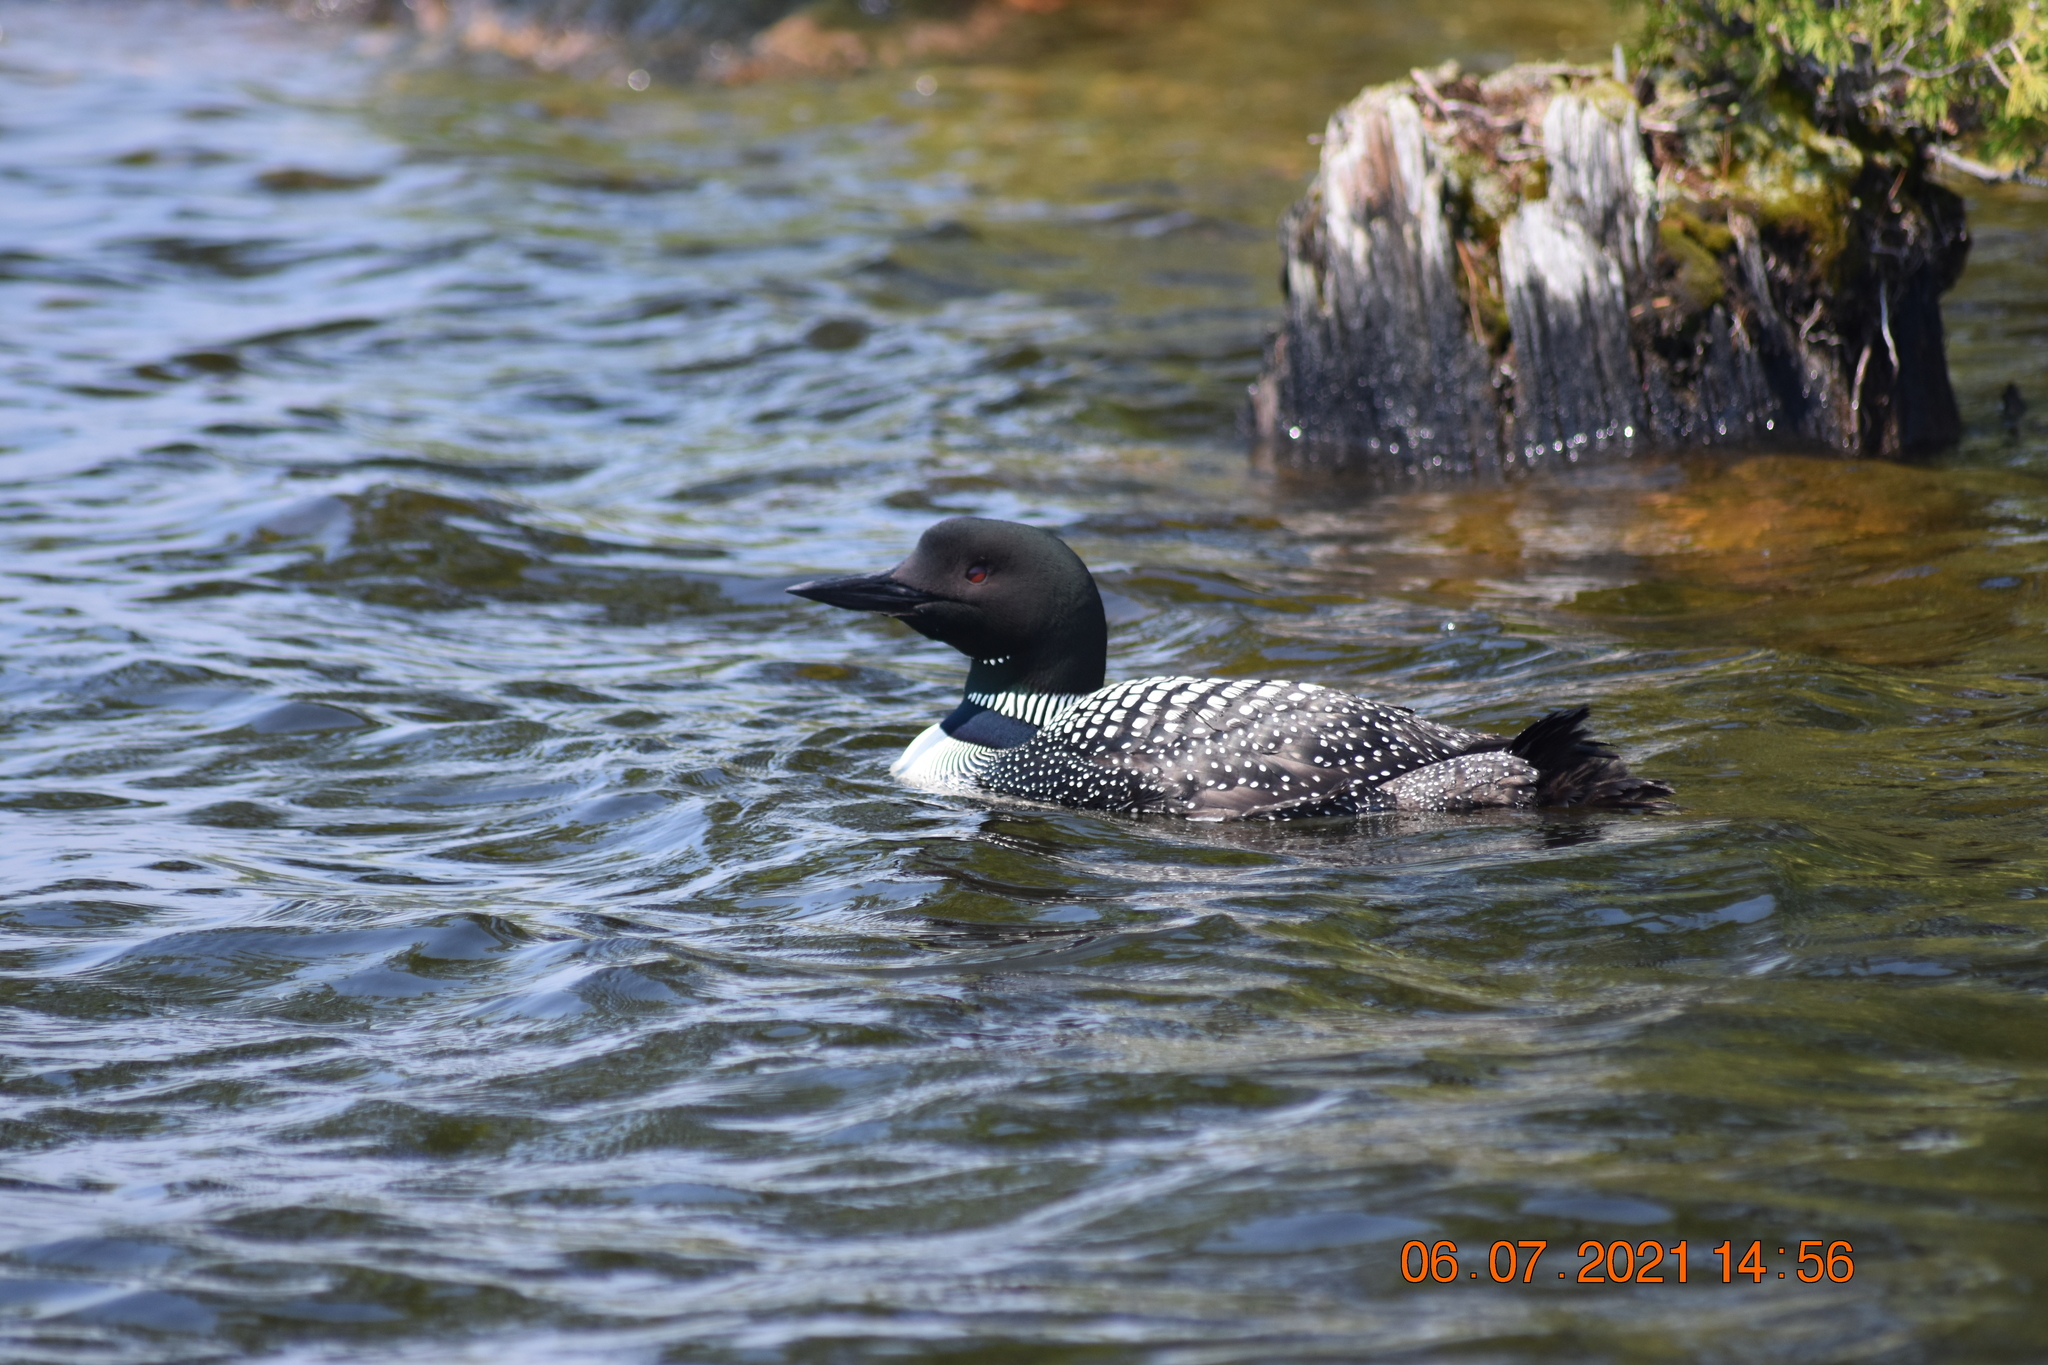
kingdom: Animalia
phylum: Chordata
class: Aves
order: Gaviiformes
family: Gaviidae
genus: Gavia
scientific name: Gavia immer
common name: Common loon
